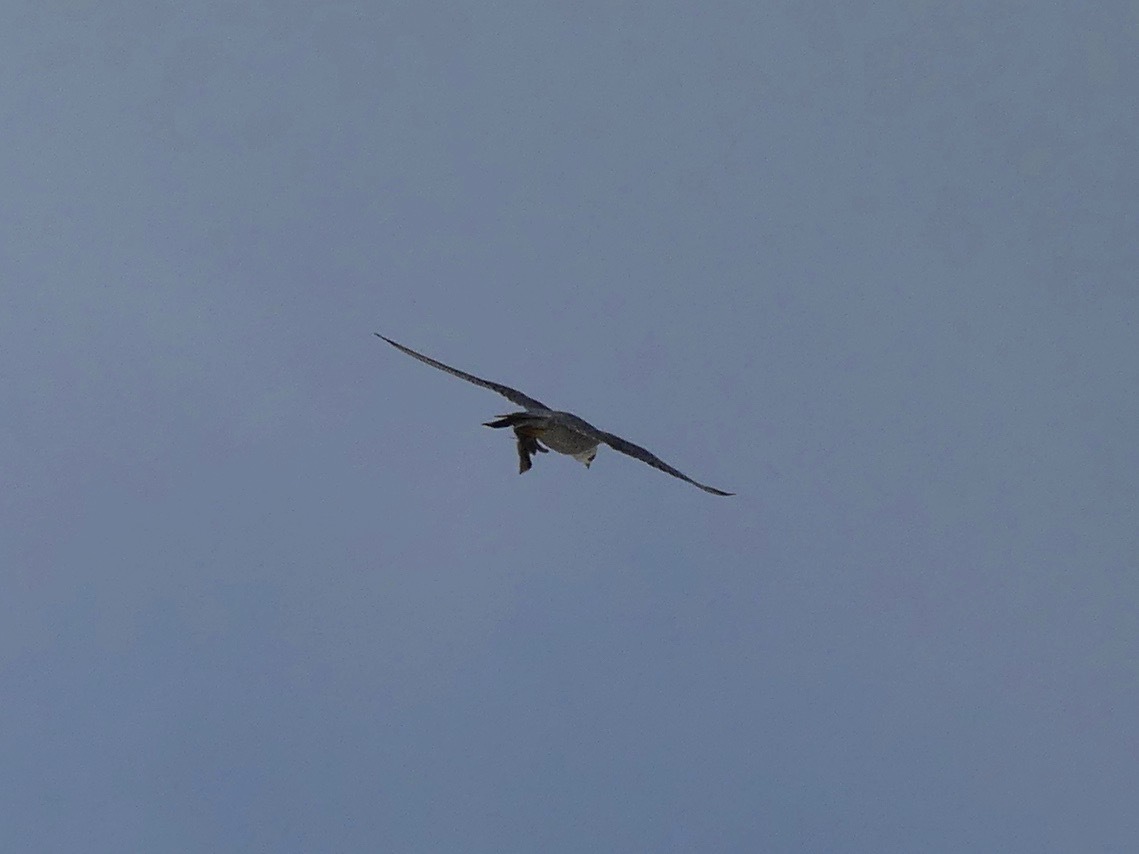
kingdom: Animalia
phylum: Chordata
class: Aves
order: Falconiformes
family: Falconidae
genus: Falco
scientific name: Falco peregrinus
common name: Peregrine falcon
